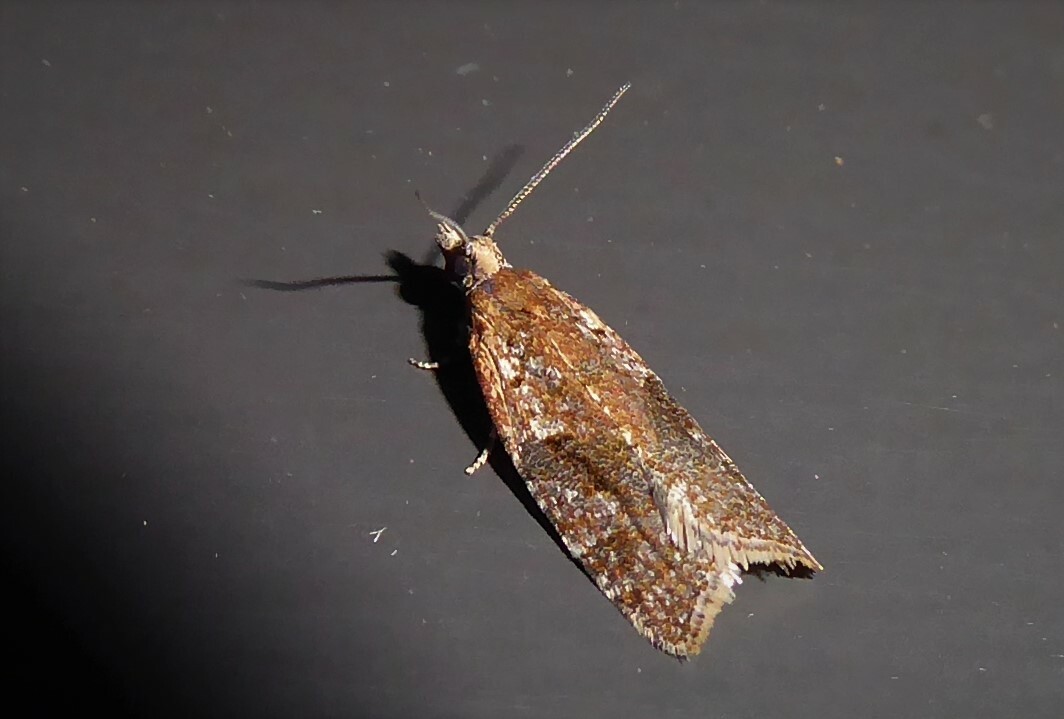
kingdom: Animalia
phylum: Arthropoda
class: Insecta
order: Lepidoptera
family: Tortricidae
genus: Capua
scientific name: Capua semiferana
